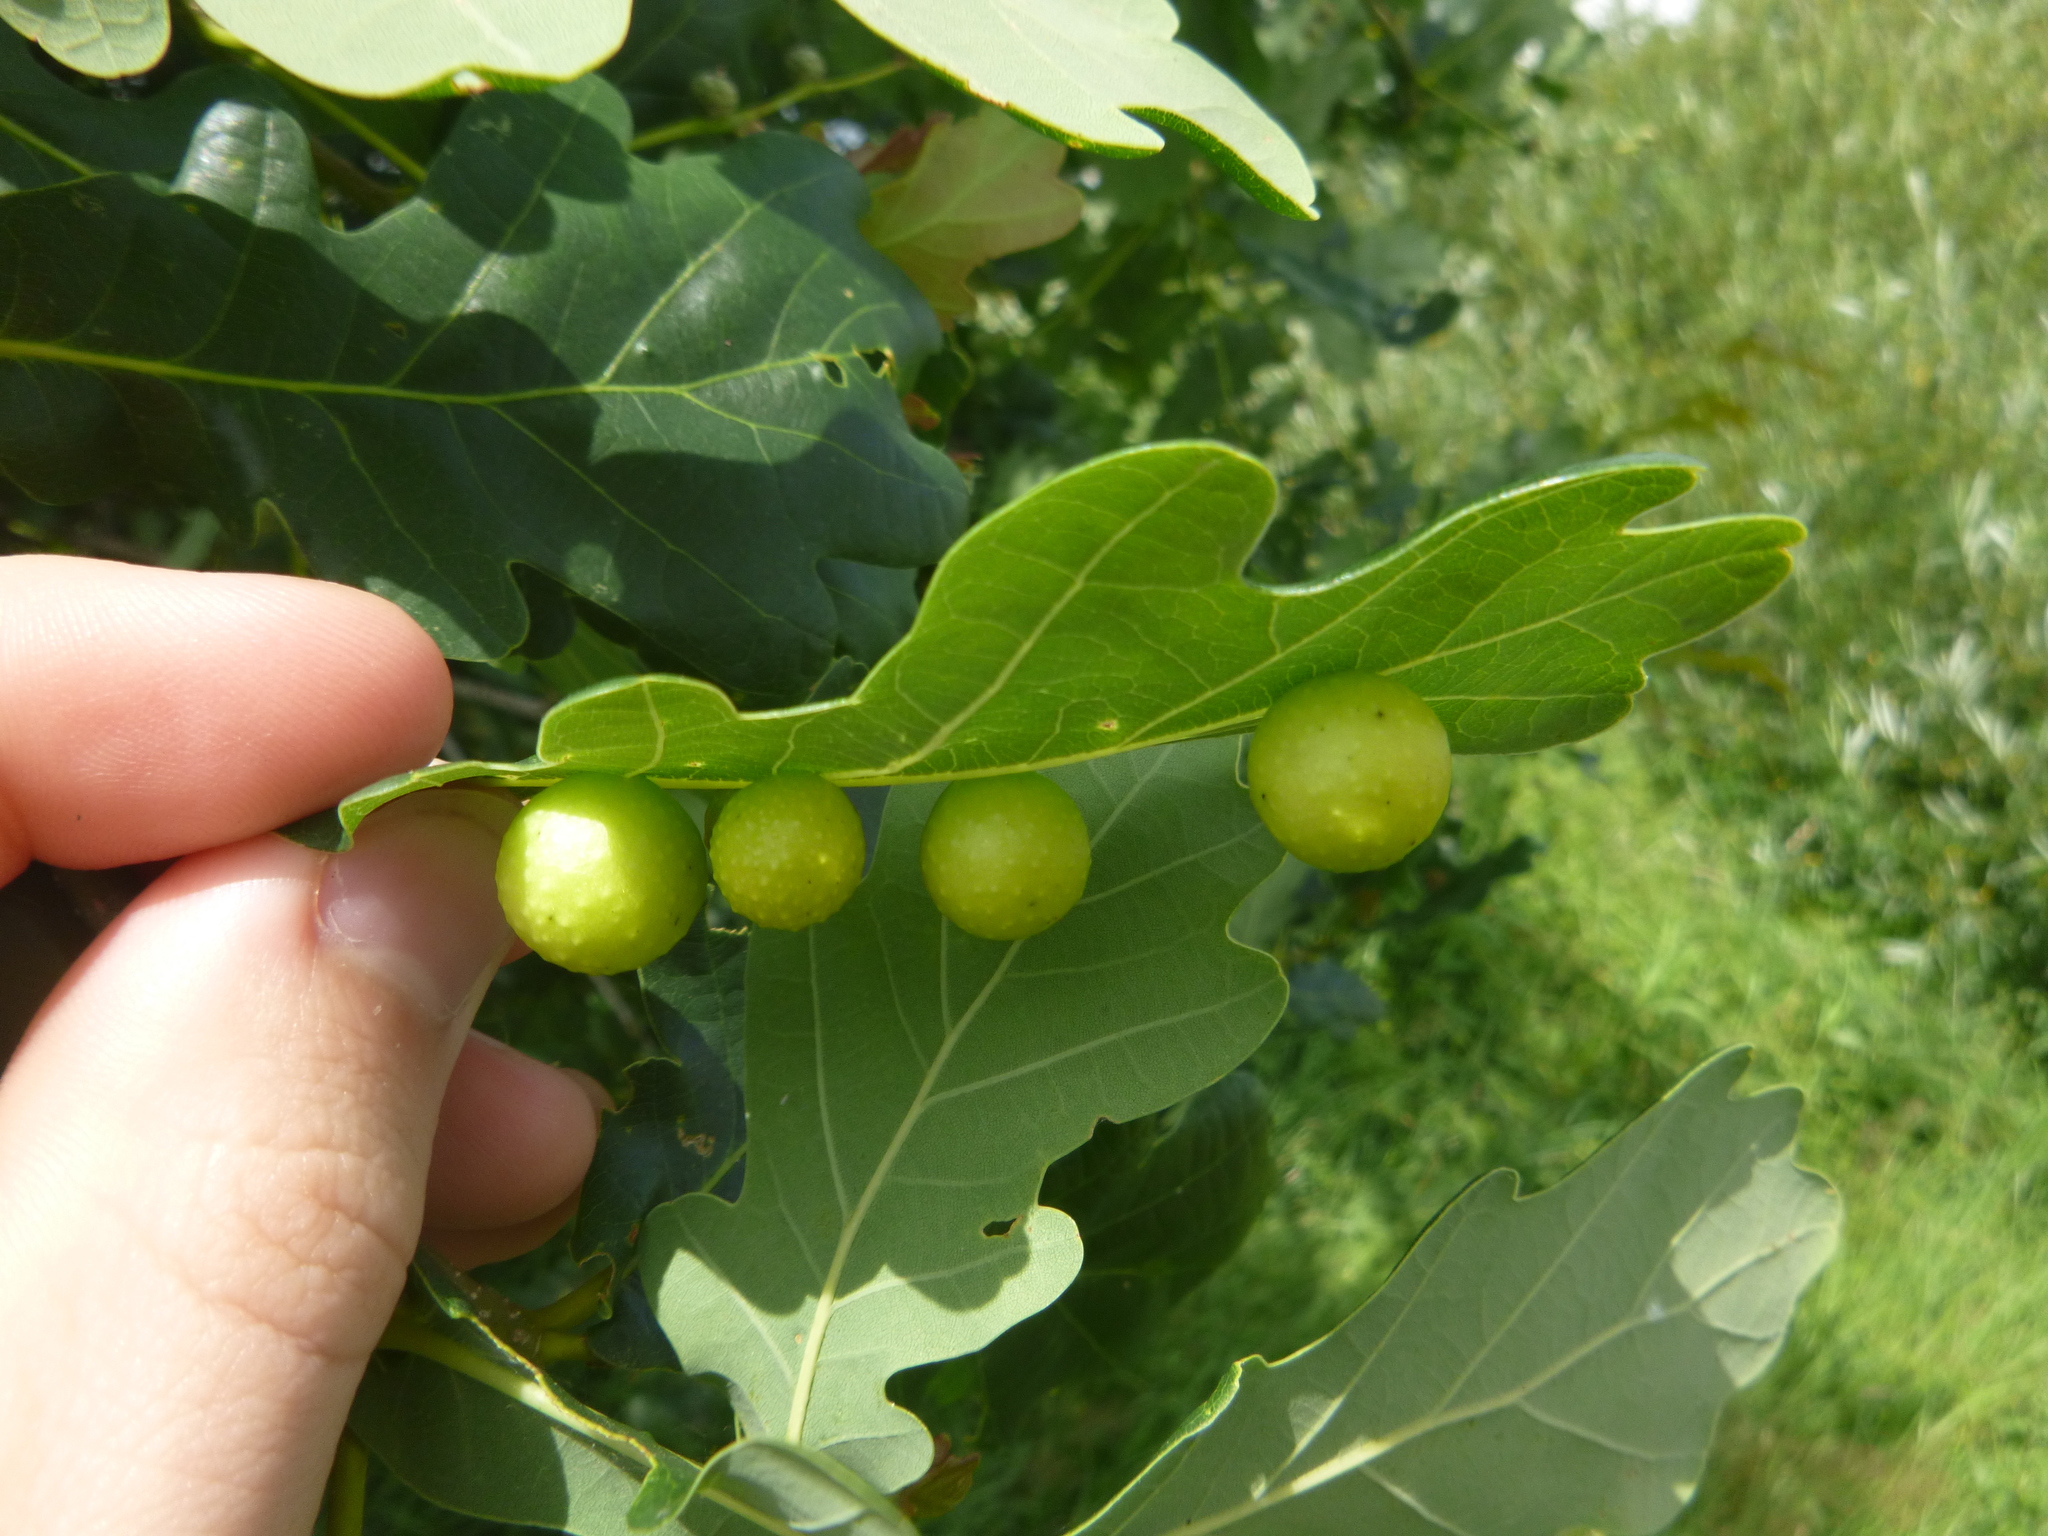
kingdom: Animalia
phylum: Arthropoda
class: Insecta
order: Hymenoptera
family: Cynipidae
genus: Cynips
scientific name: Cynips quercusfolii
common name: Cherry gall
